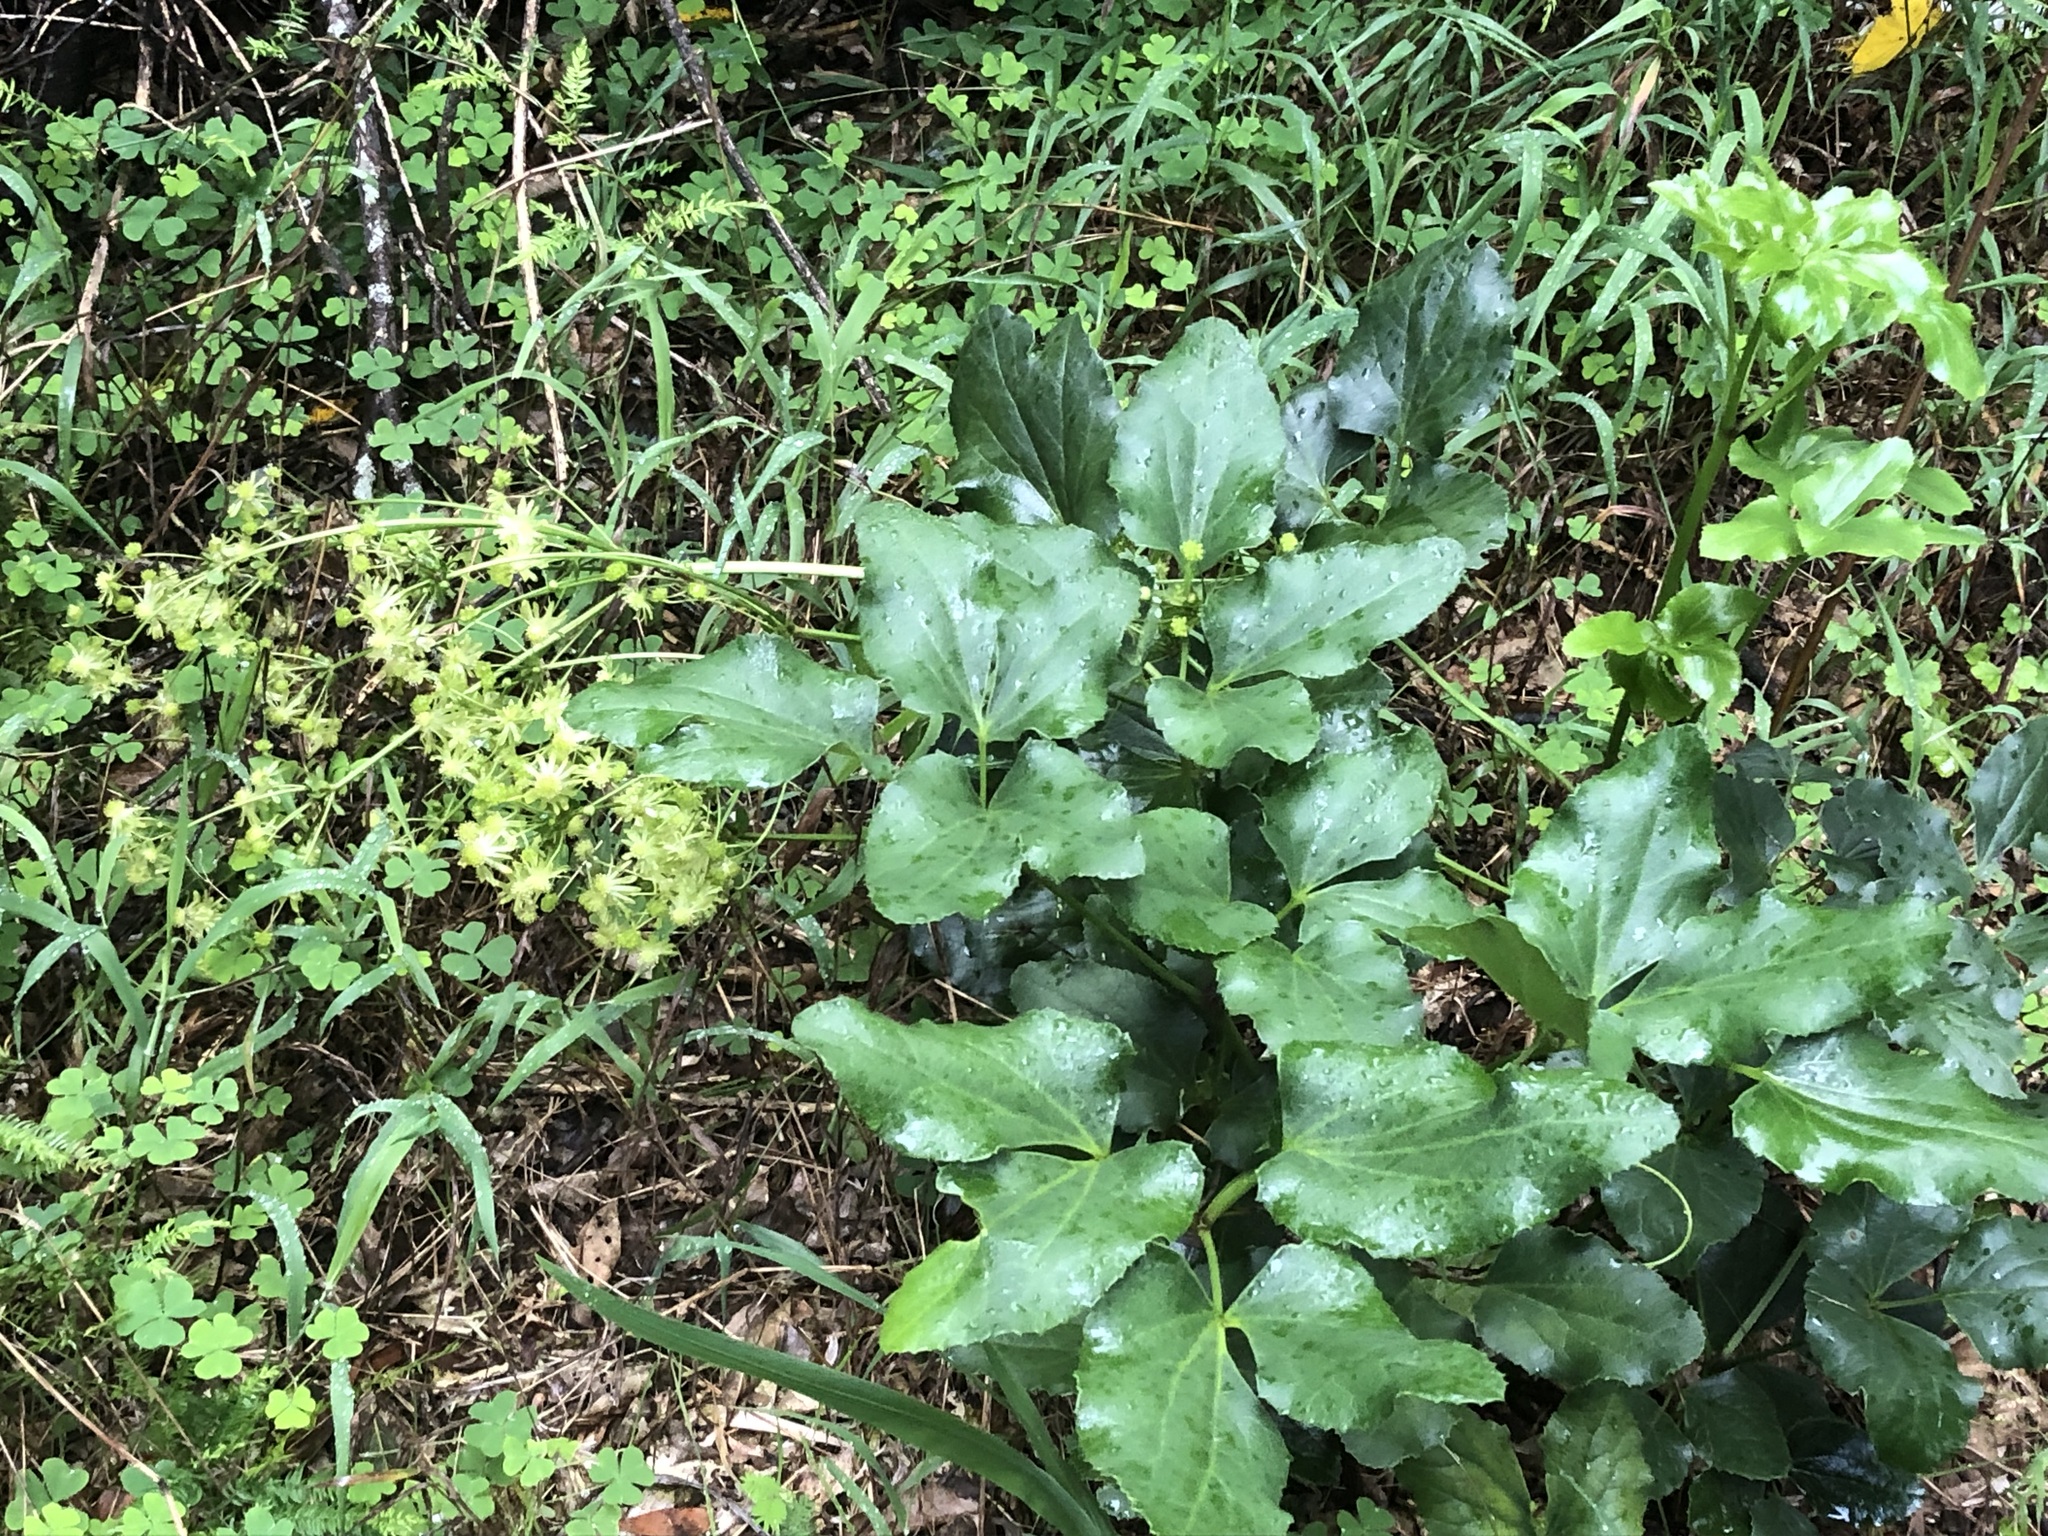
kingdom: Plantae
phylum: Tracheophyta
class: Magnoliopsida
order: Ranunculales
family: Ranunculaceae
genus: Knowltonia
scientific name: Knowltonia vesicatoria
